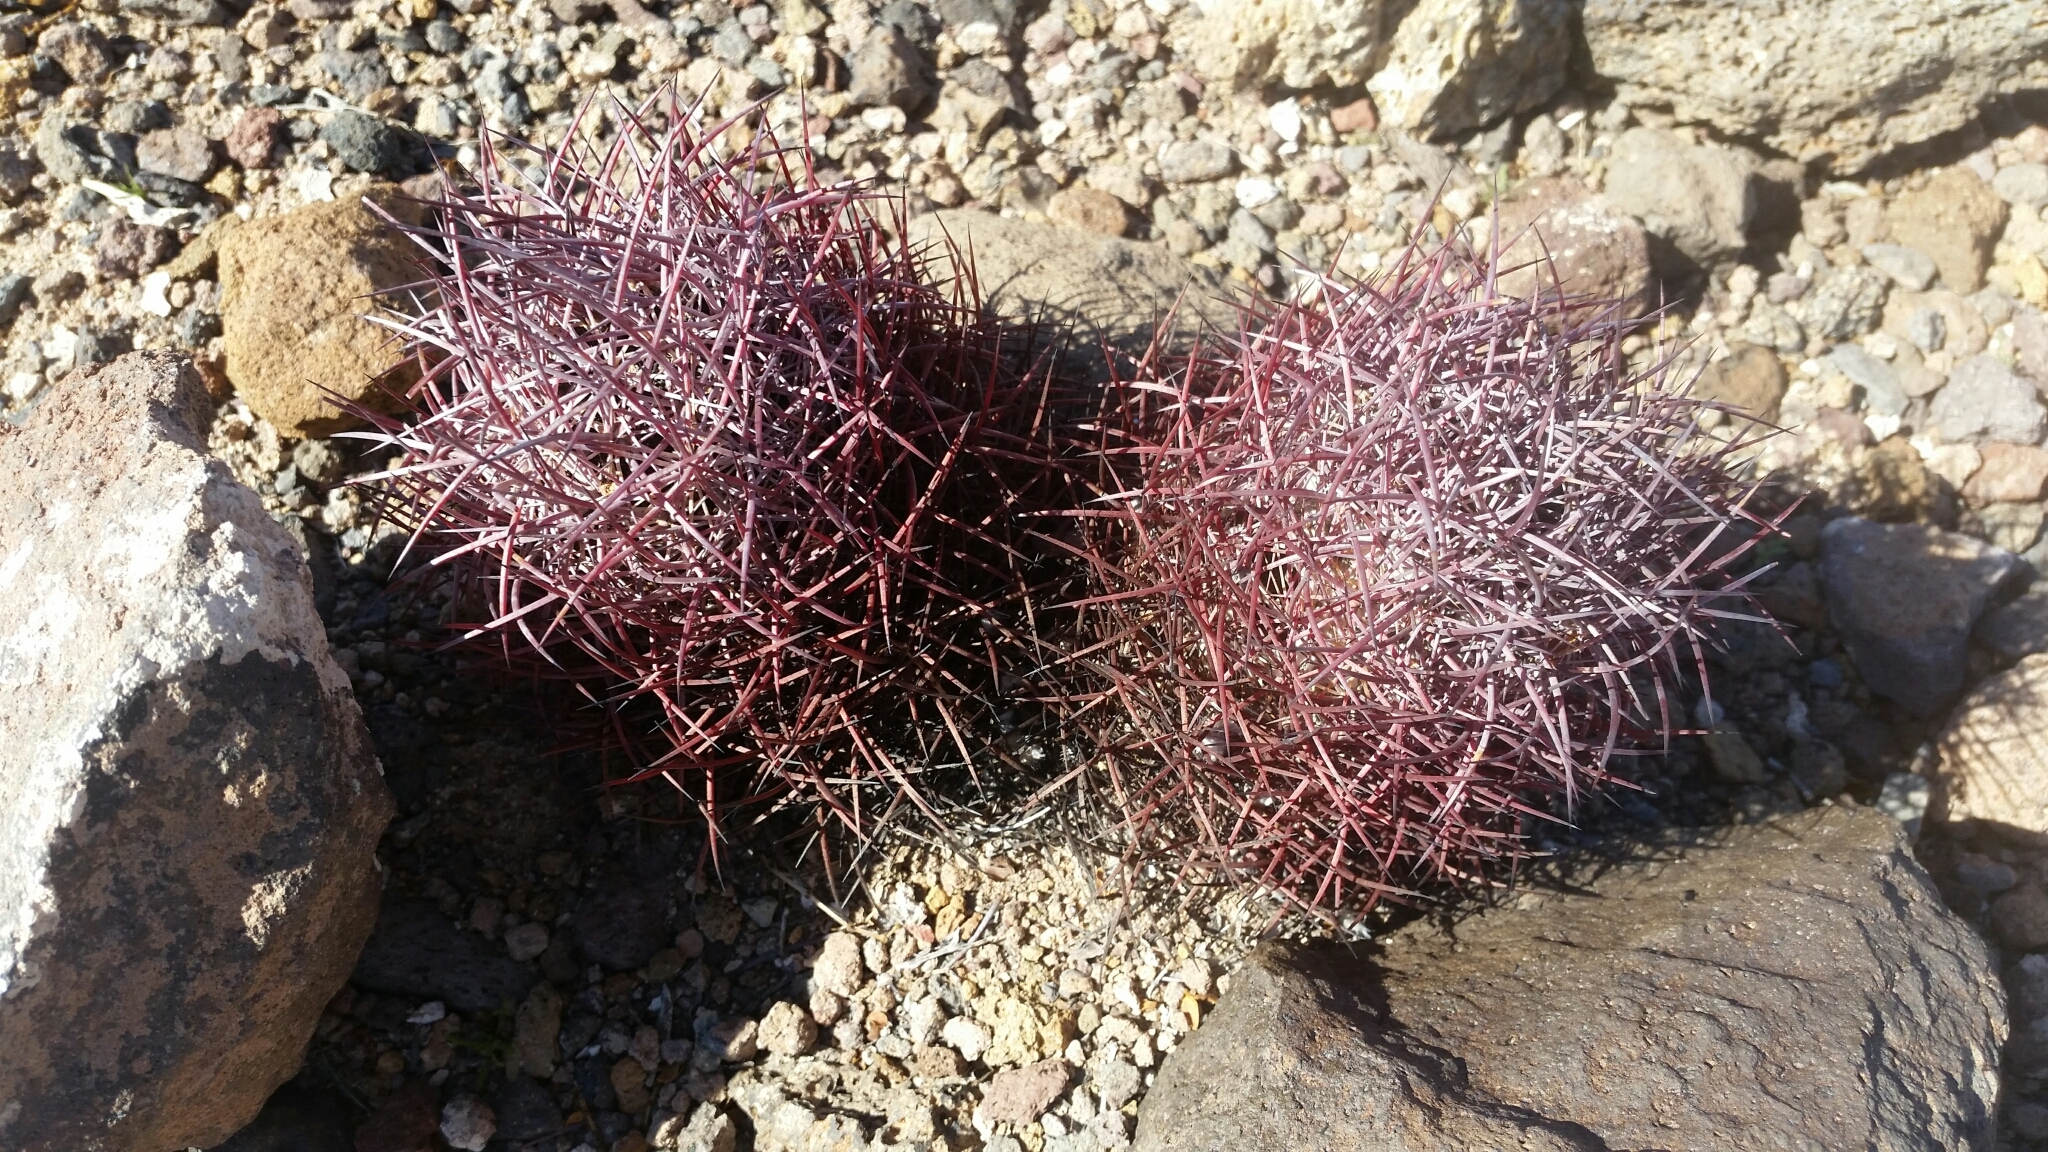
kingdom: Plantae
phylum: Tracheophyta
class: Magnoliopsida
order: Caryophyllales
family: Cactaceae
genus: Sclerocactus
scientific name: Sclerocactus johnsonii
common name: Eight-spine fishhook cactus
